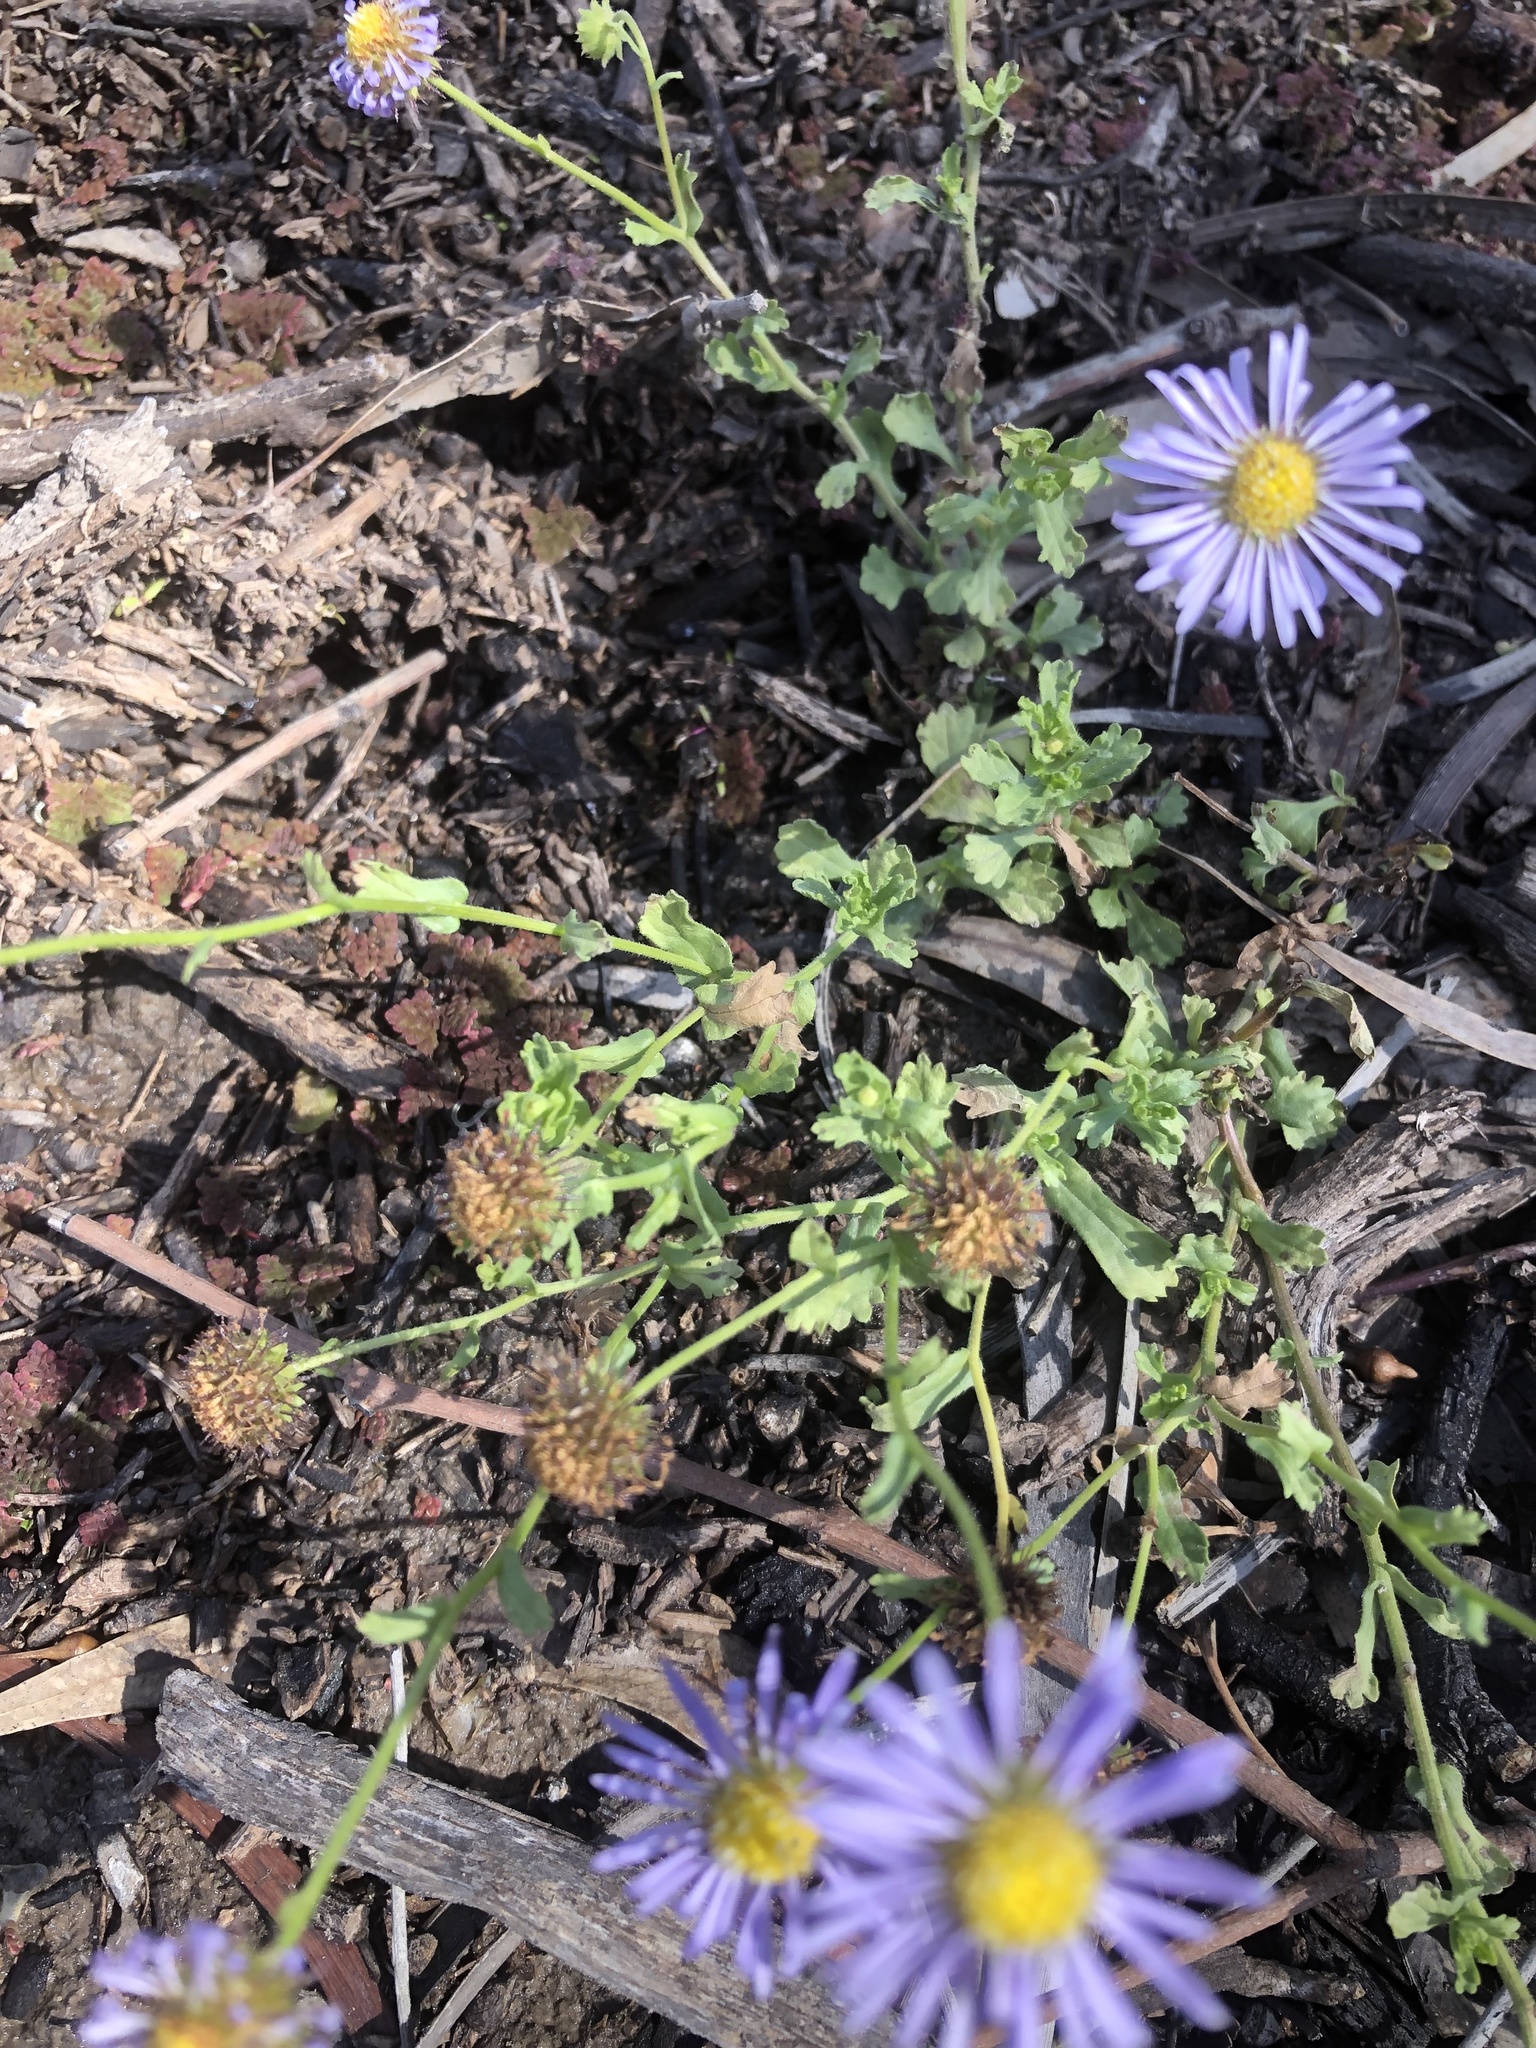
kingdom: Plantae
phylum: Tracheophyta
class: Magnoliopsida
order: Asterales
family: Asteraceae
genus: Calotis
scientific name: Calotis cuneifolia
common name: Bur-daisy
